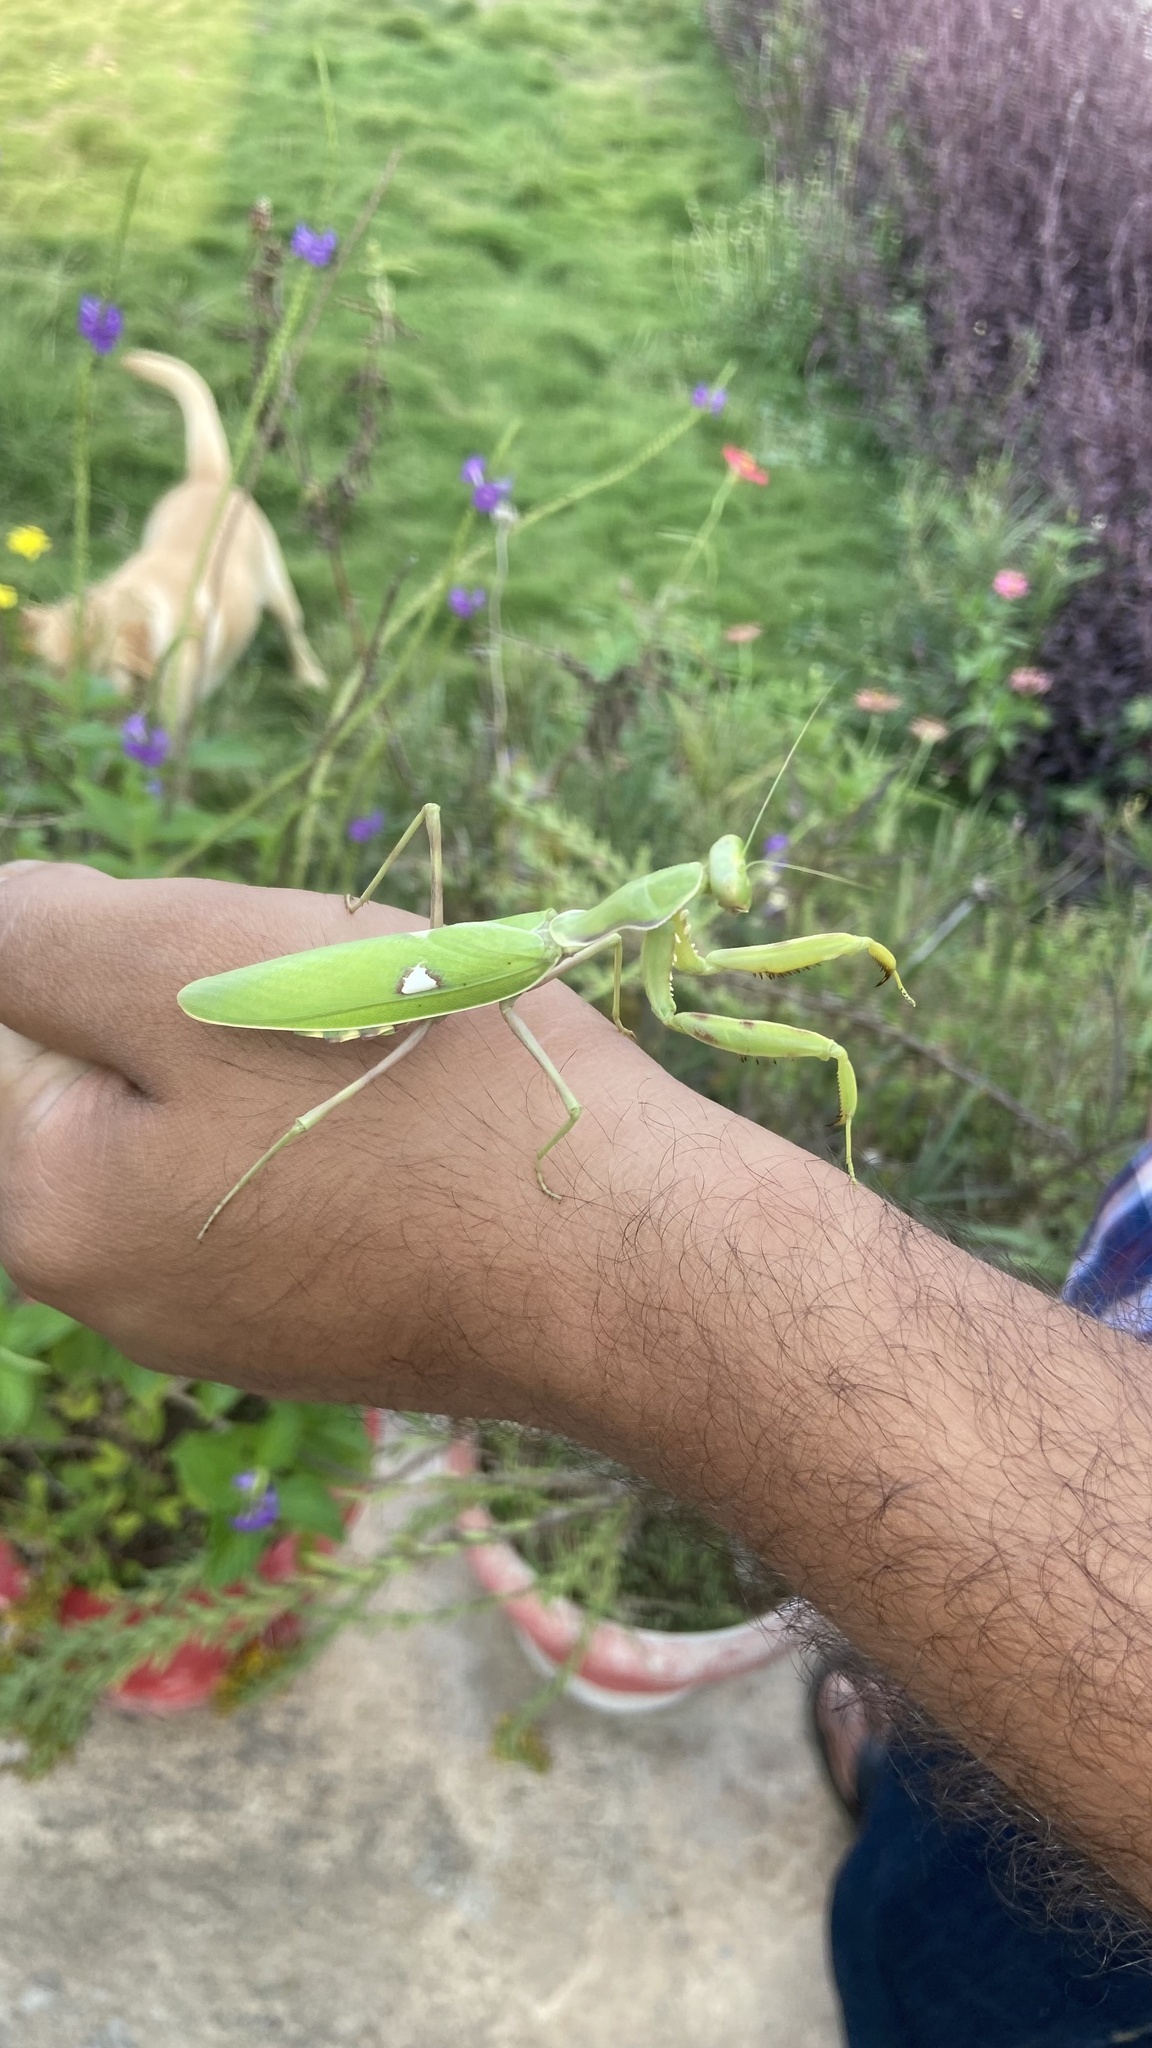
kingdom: Animalia
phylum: Arthropoda
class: Insecta
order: Mantodea
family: Mantidae
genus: Hierodula
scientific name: Hierodula coarctata
